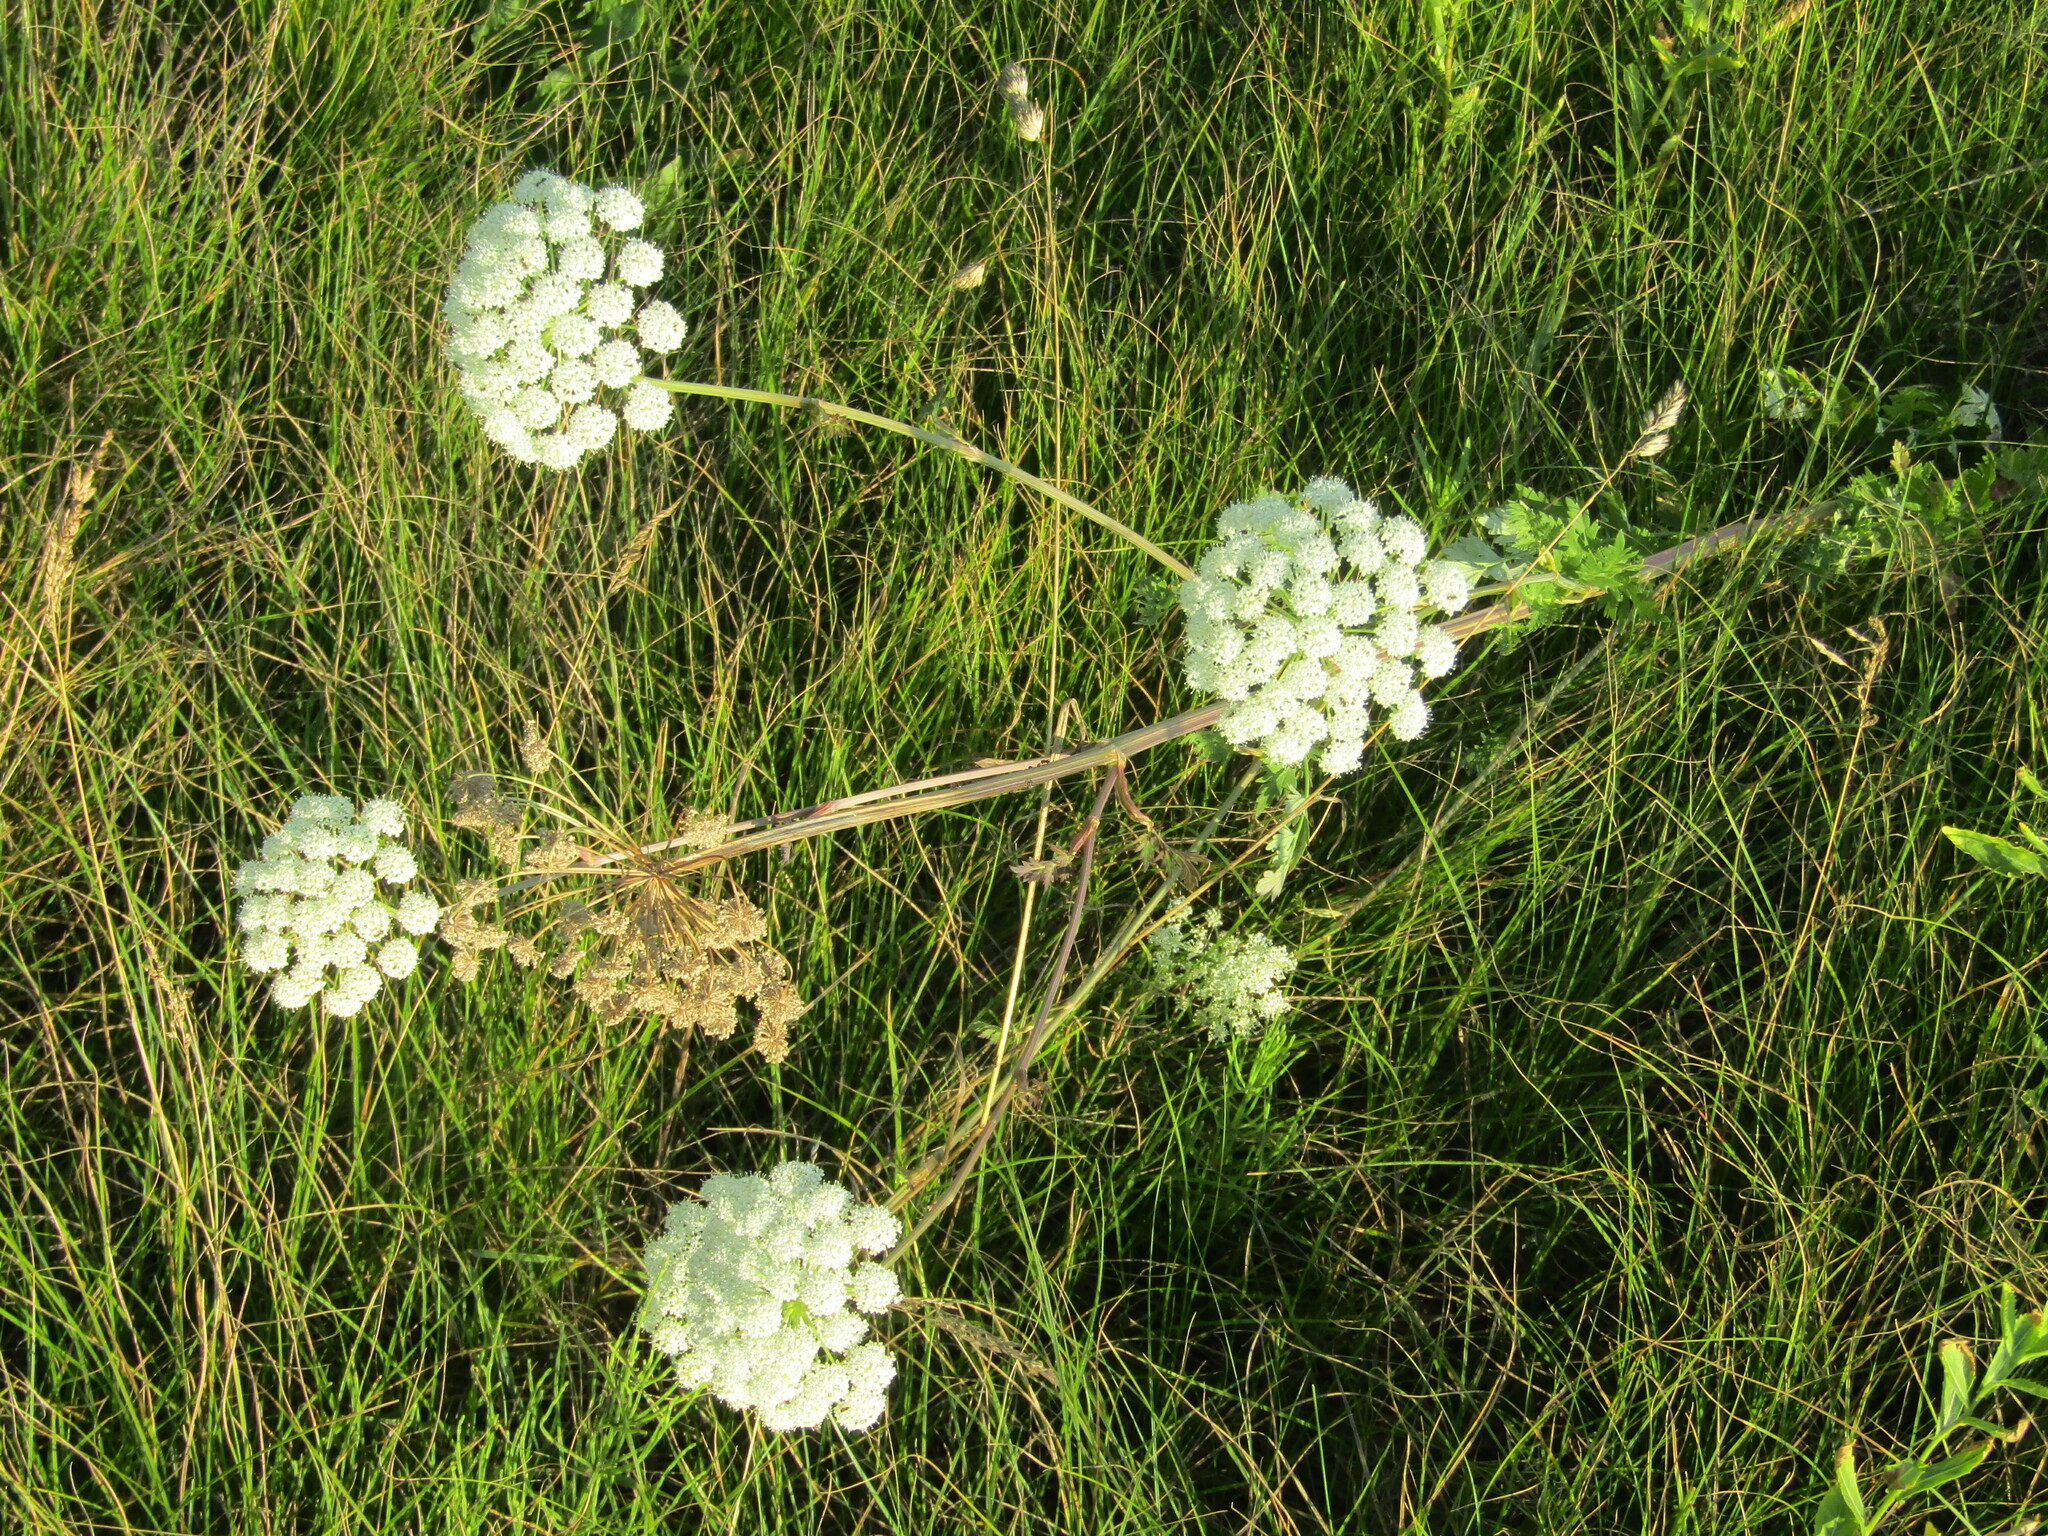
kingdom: Plantae
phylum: Tracheophyta
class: Magnoliopsida
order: Apiales
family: Apiaceae
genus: Seseli
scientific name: Seseli libanotis
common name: Mooncarrot
